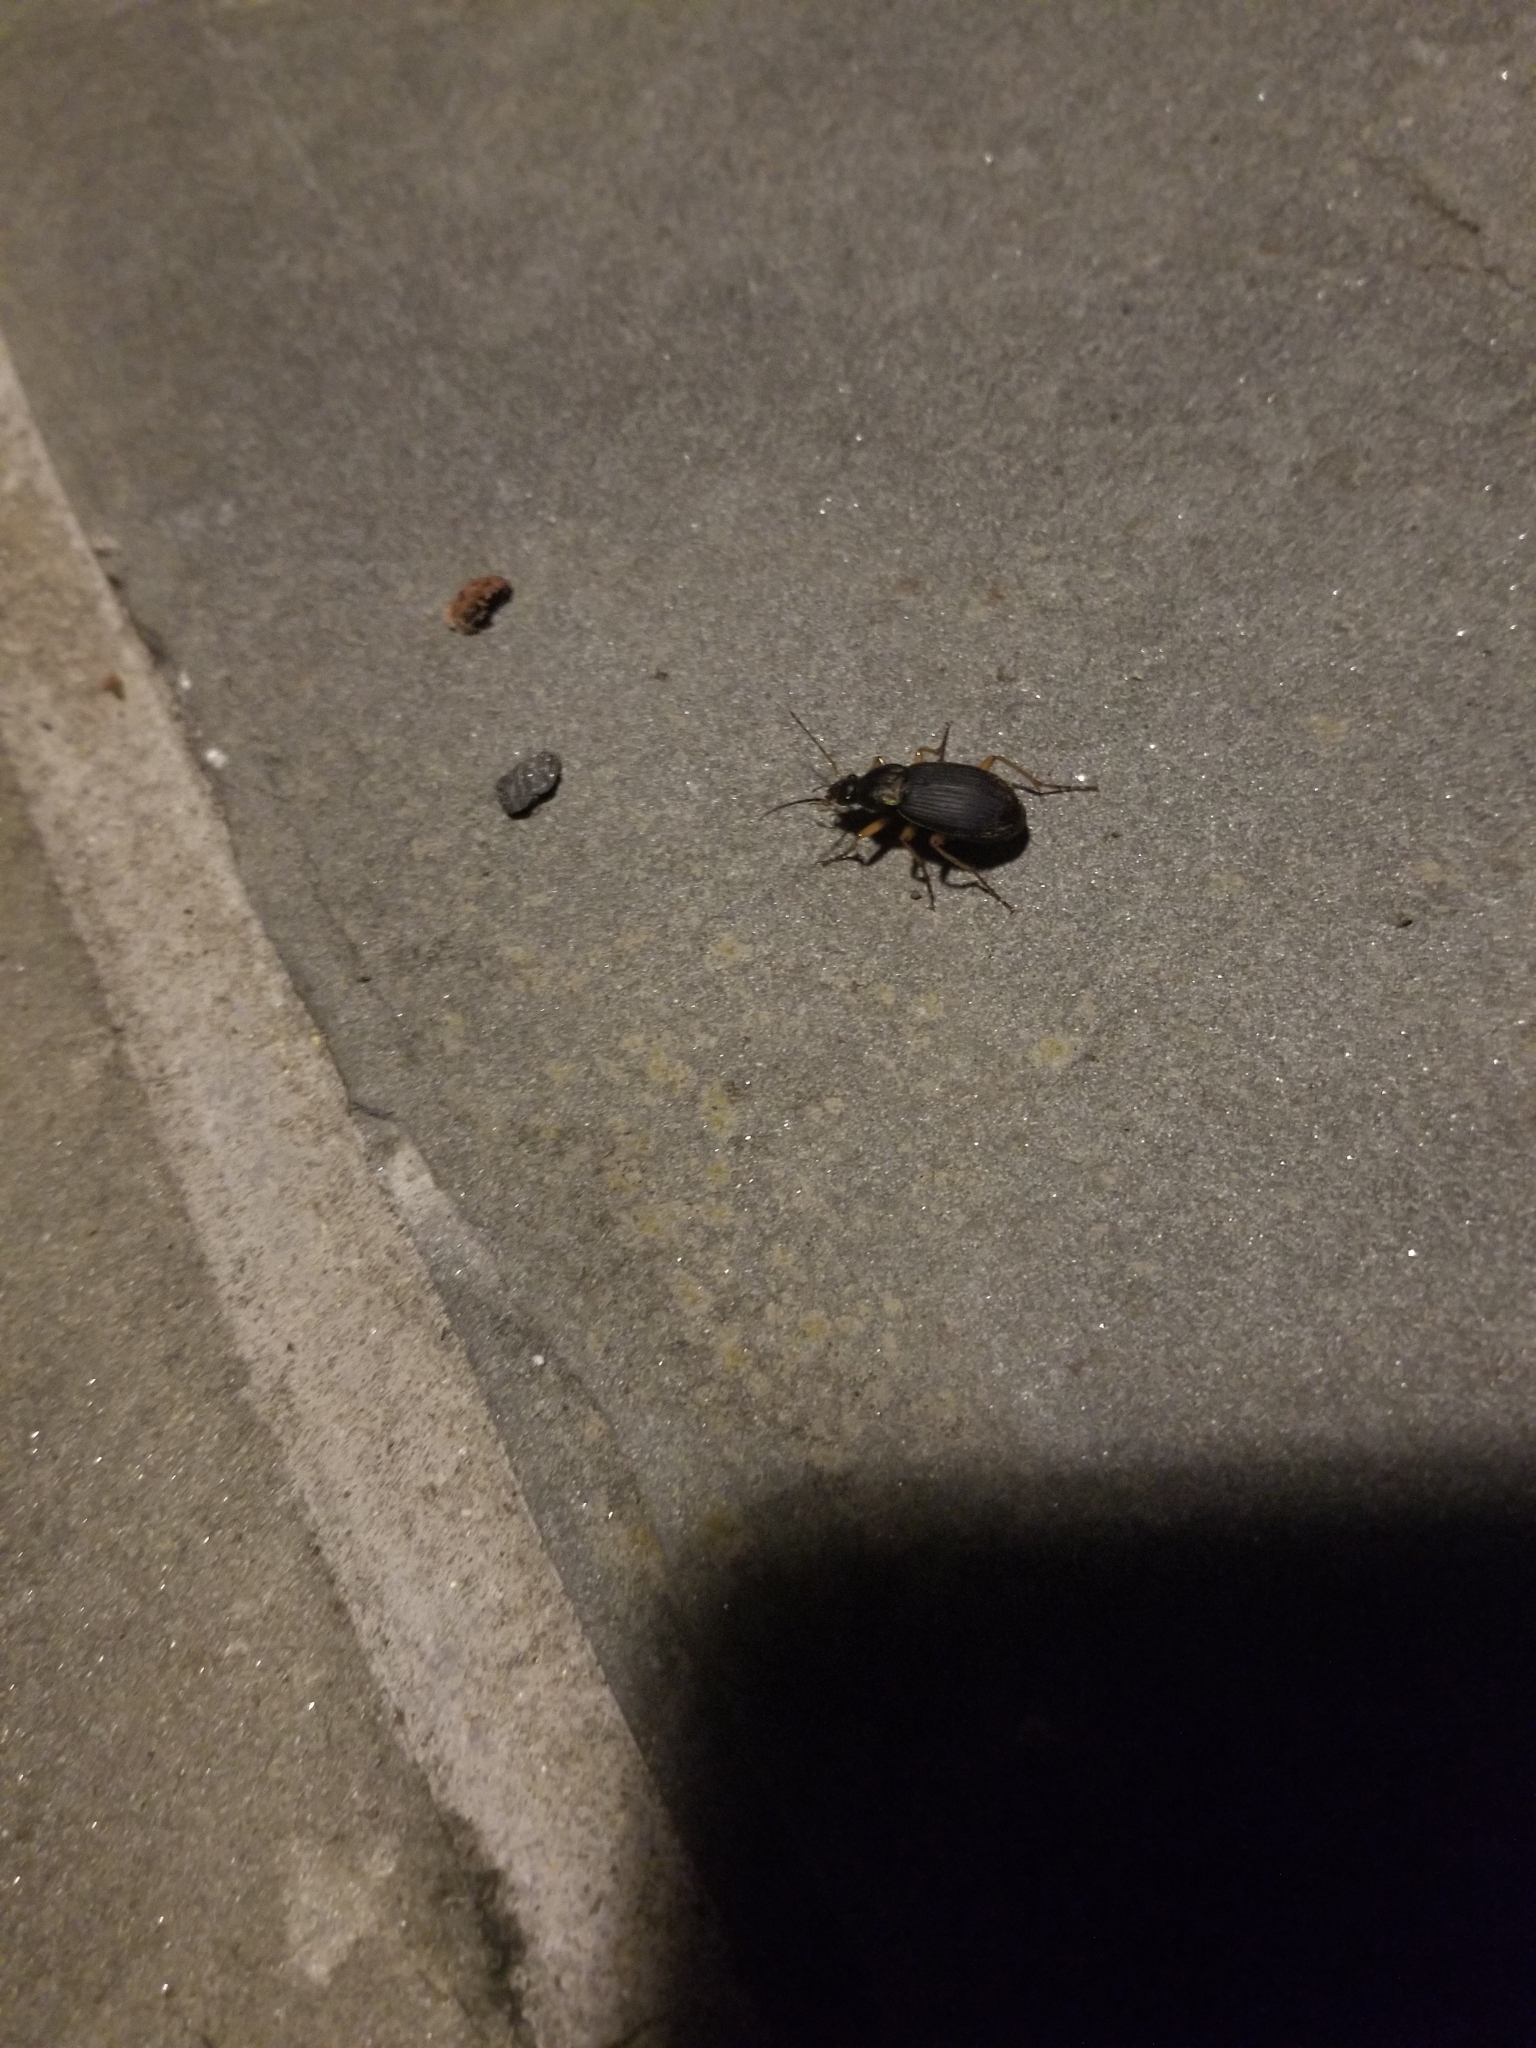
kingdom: Animalia
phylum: Arthropoda
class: Insecta
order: Coleoptera
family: Carabidae
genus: Chlaenius
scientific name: Chlaenius sericeus
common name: Green pubescent ground beetle
